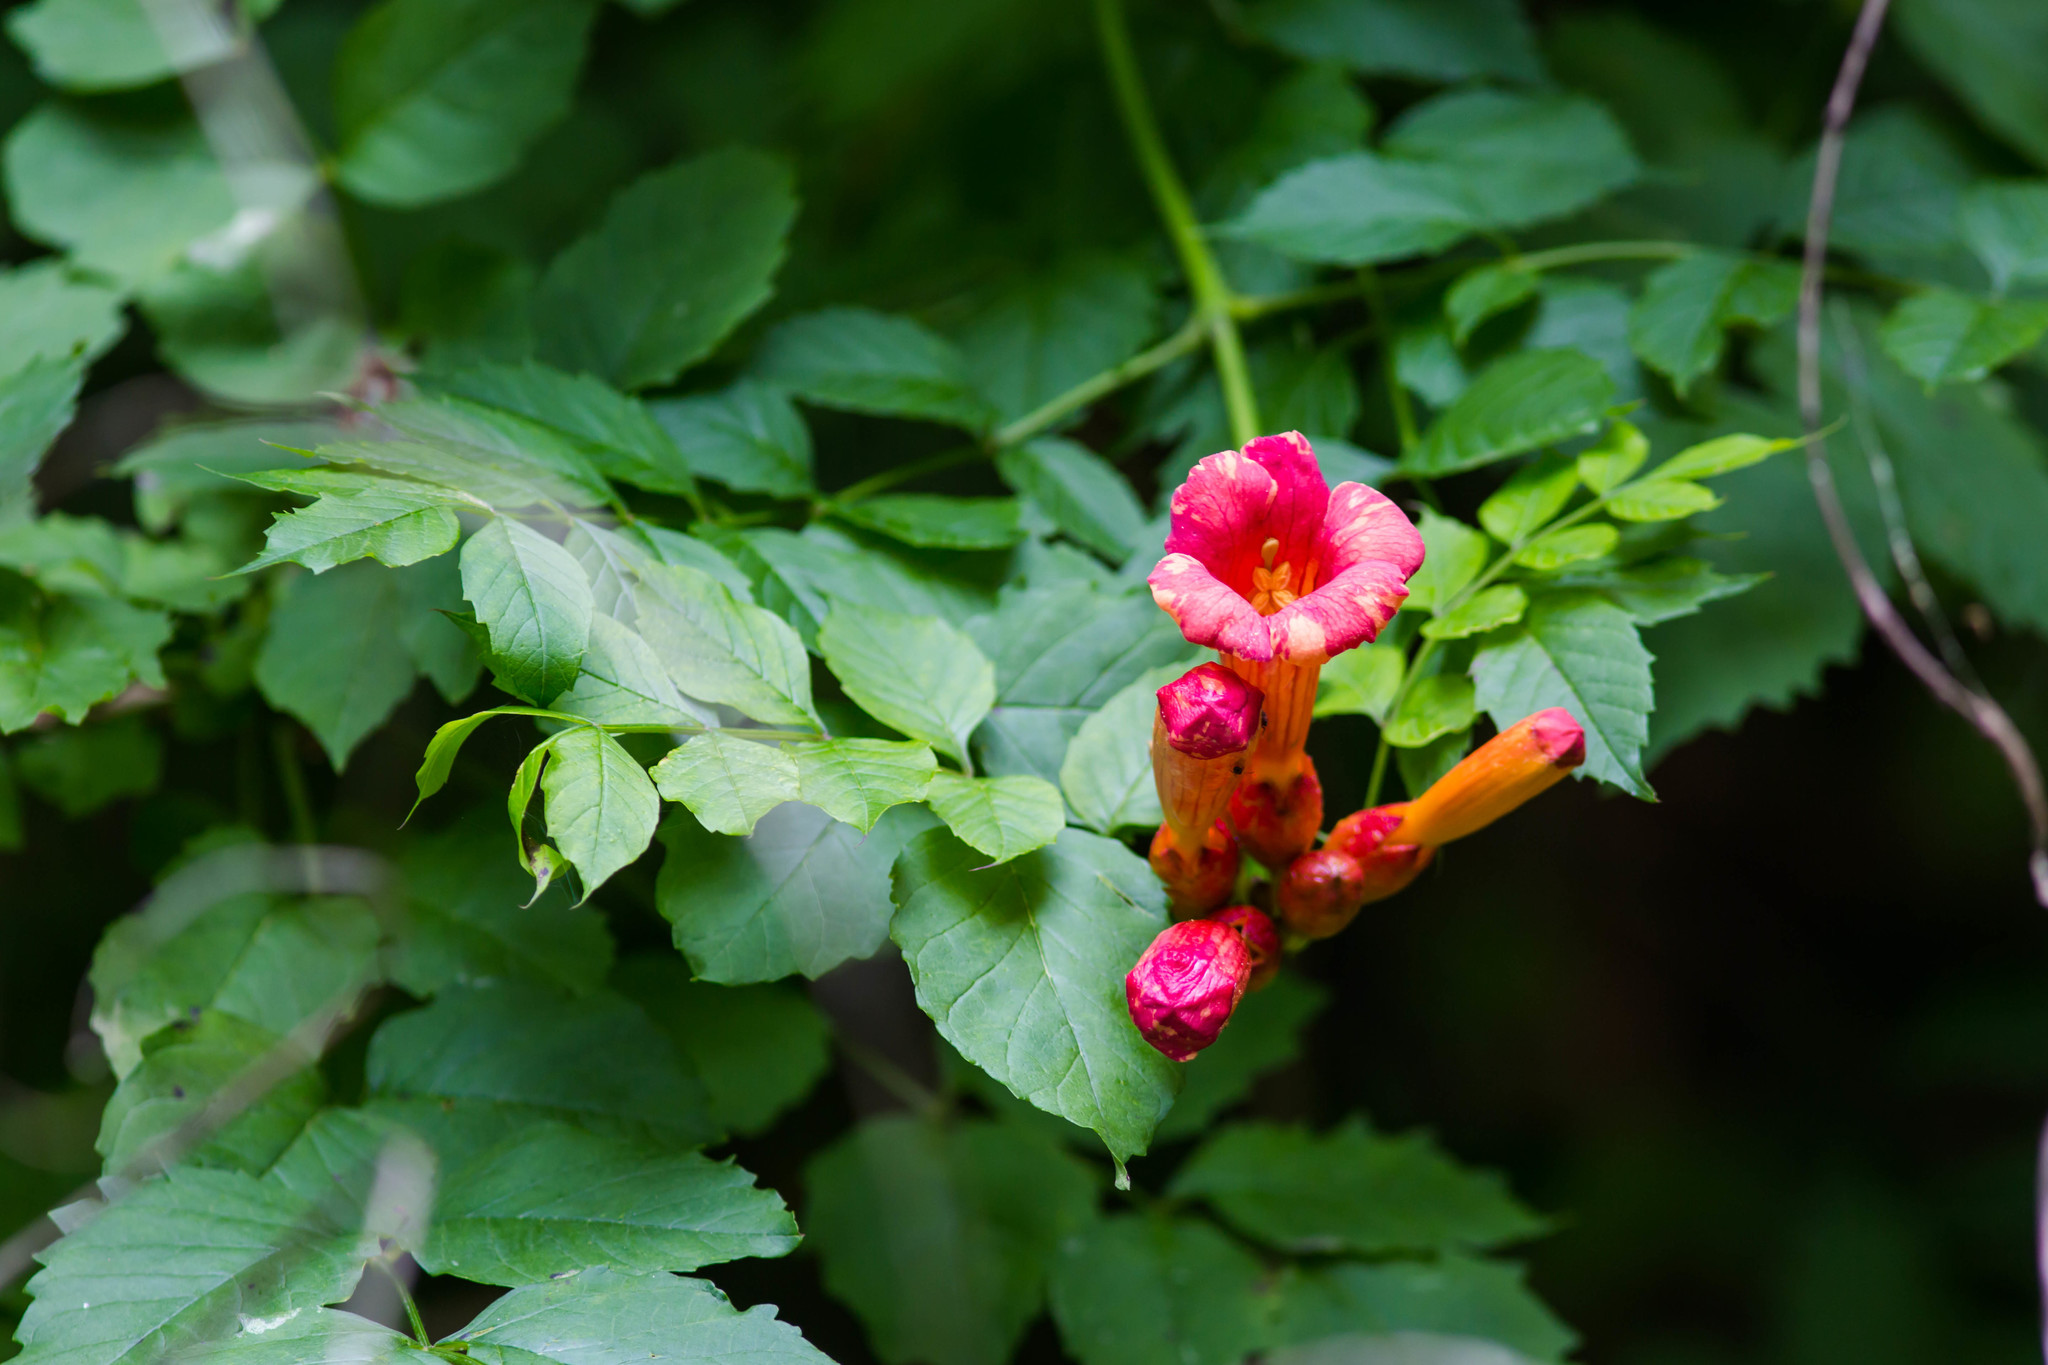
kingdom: Plantae
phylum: Tracheophyta
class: Magnoliopsida
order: Lamiales
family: Bignoniaceae
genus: Campsis
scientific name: Campsis radicans
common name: Trumpet-creeper
